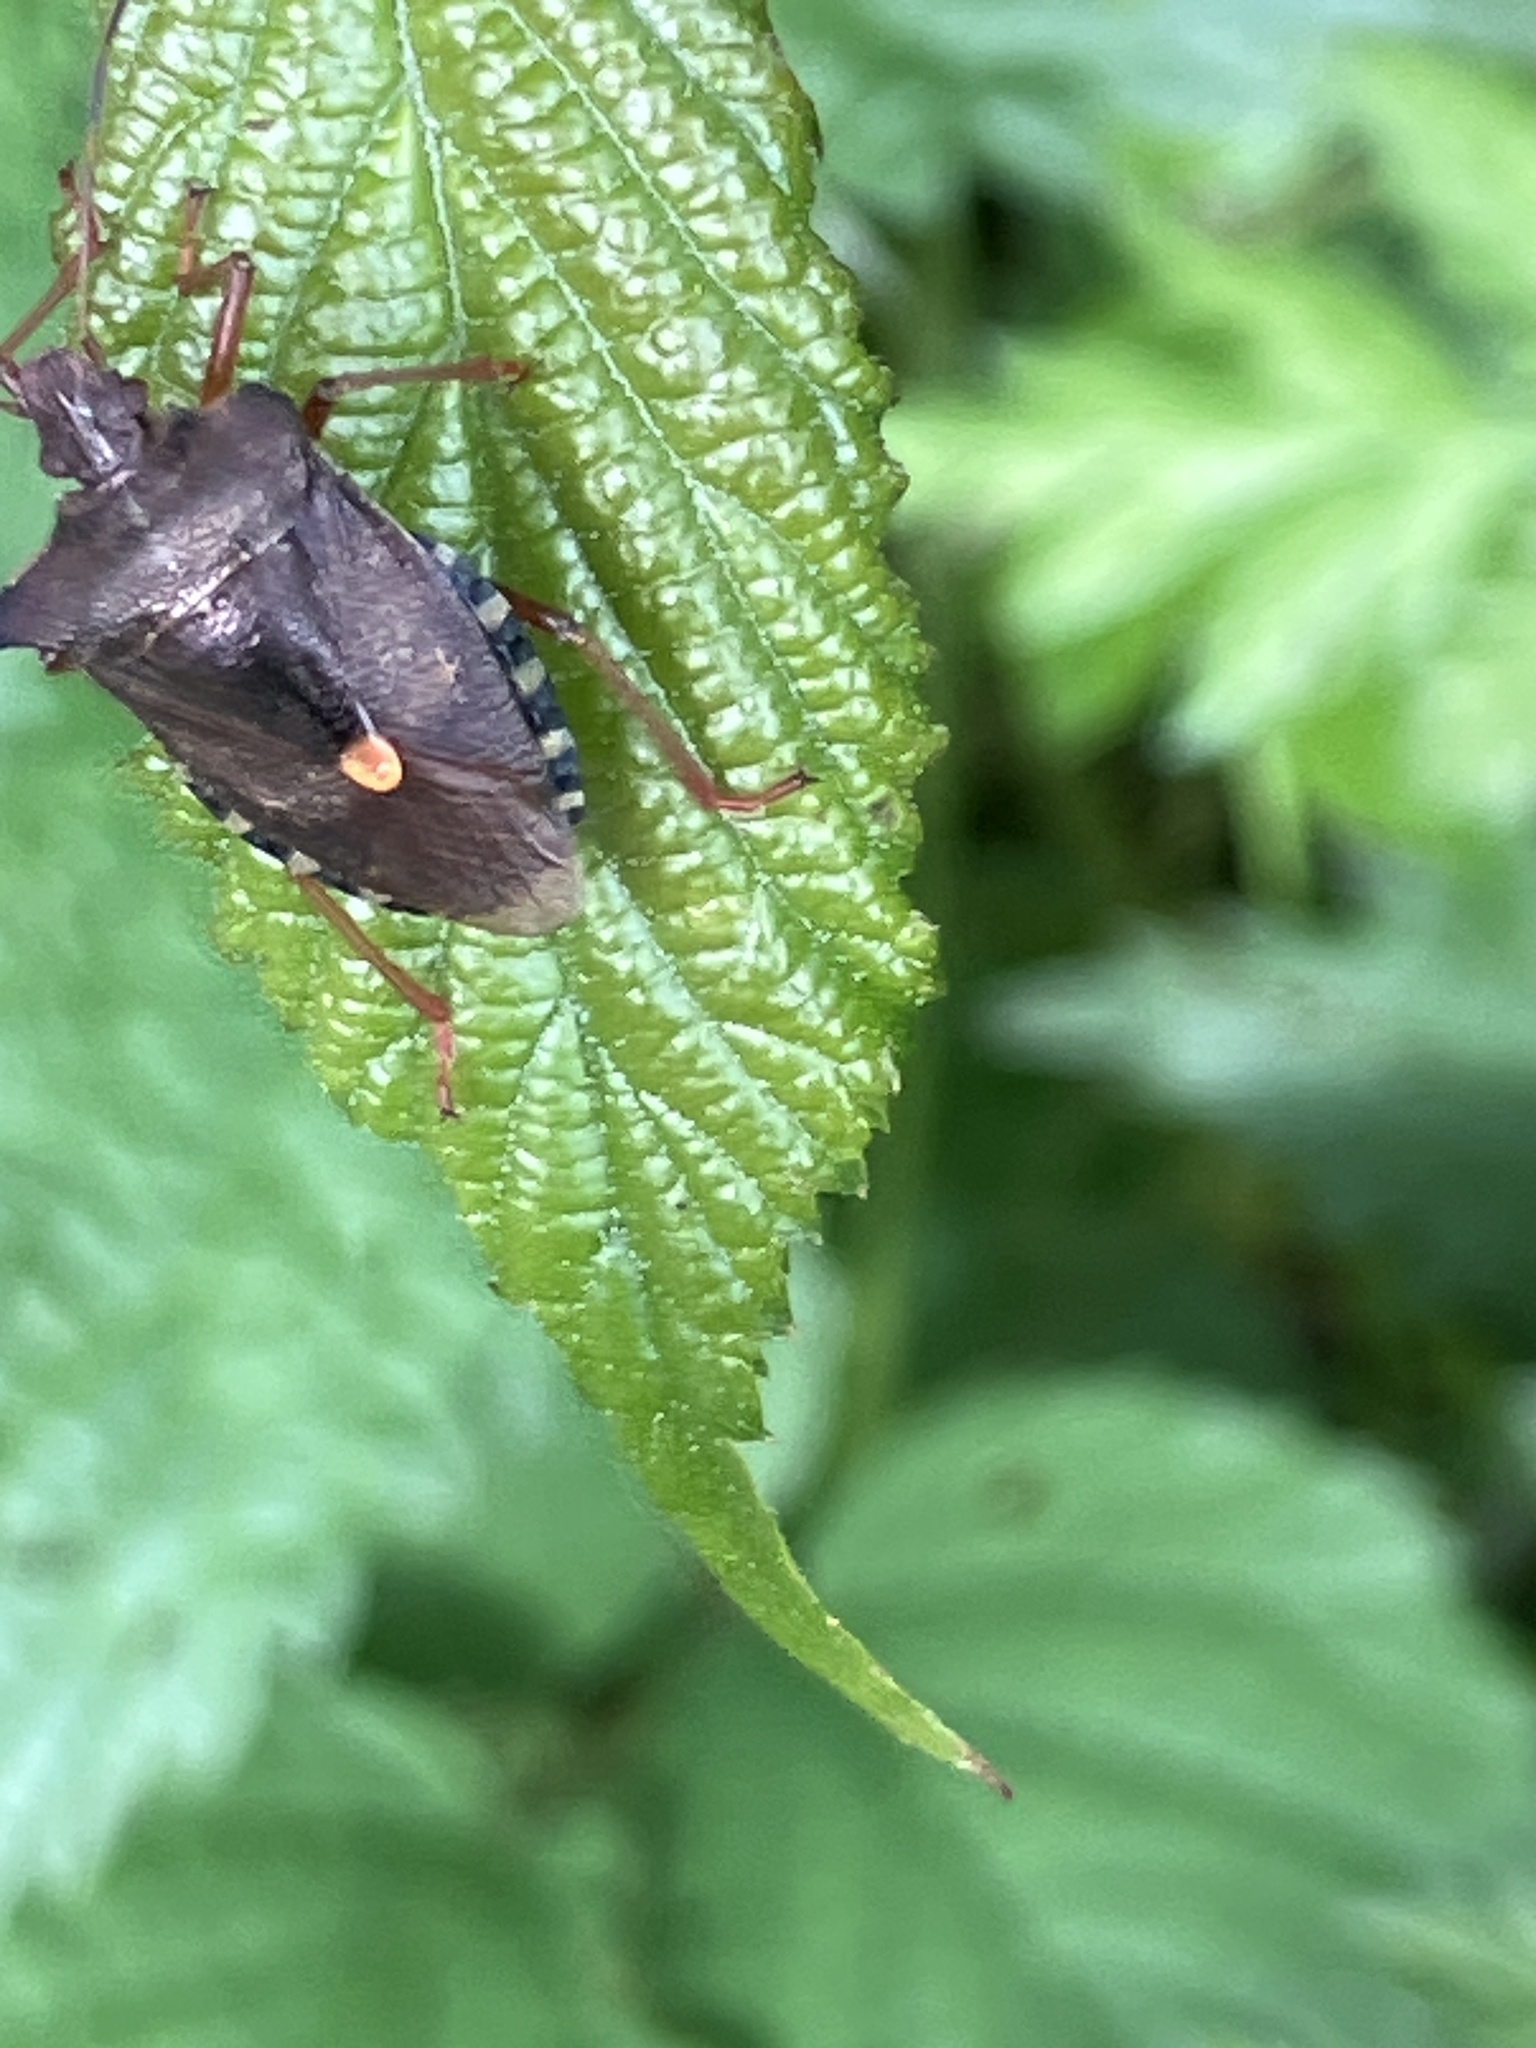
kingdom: Animalia
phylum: Arthropoda
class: Insecta
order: Hemiptera
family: Pentatomidae
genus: Pentatoma
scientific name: Pentatoma rufipes
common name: Forest bug
